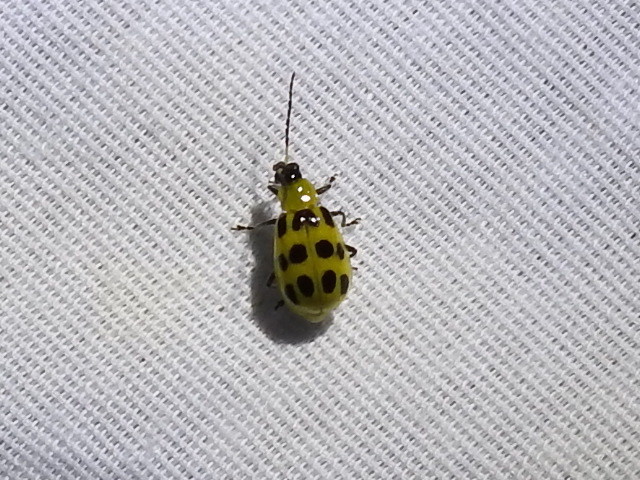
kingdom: Animalia
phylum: Arthropoda
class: Insecta
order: Coleoptera
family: Chrysomelidae
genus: Diabrotica
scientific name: Diabrotica undecimpunctata
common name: Spotted cucumber beetle
